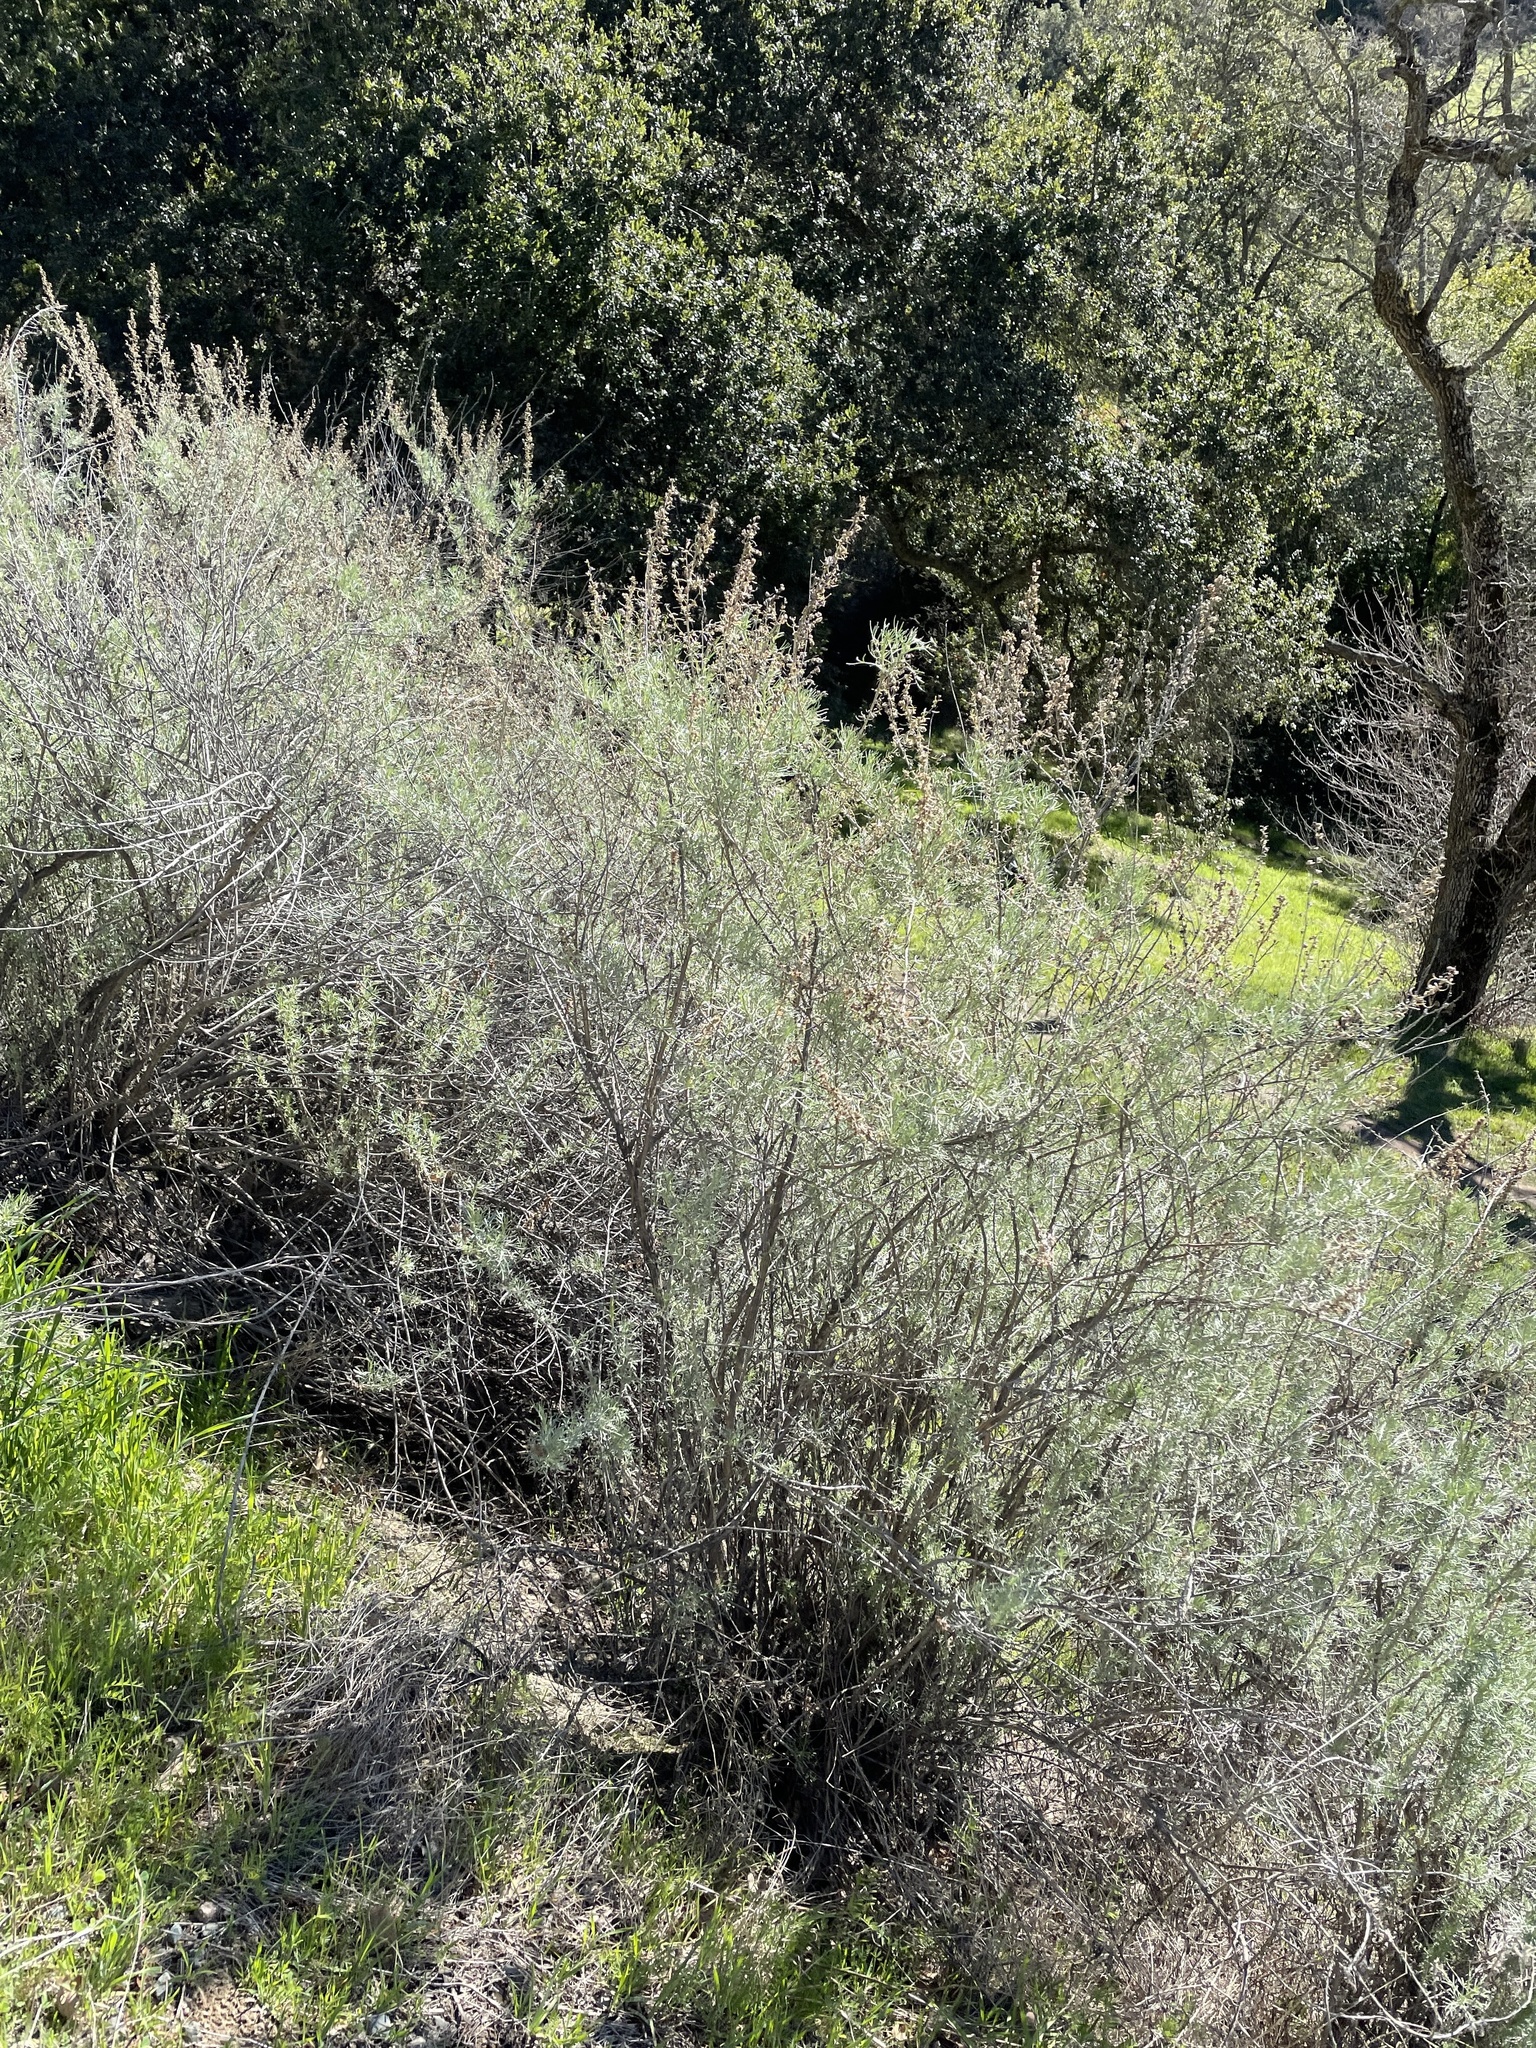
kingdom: Plantae
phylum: Tracheophyta
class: Magnoliopsida
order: Asterales
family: Asteraceae
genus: Artemisia
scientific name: Artemisia californica
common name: California sagebrush
